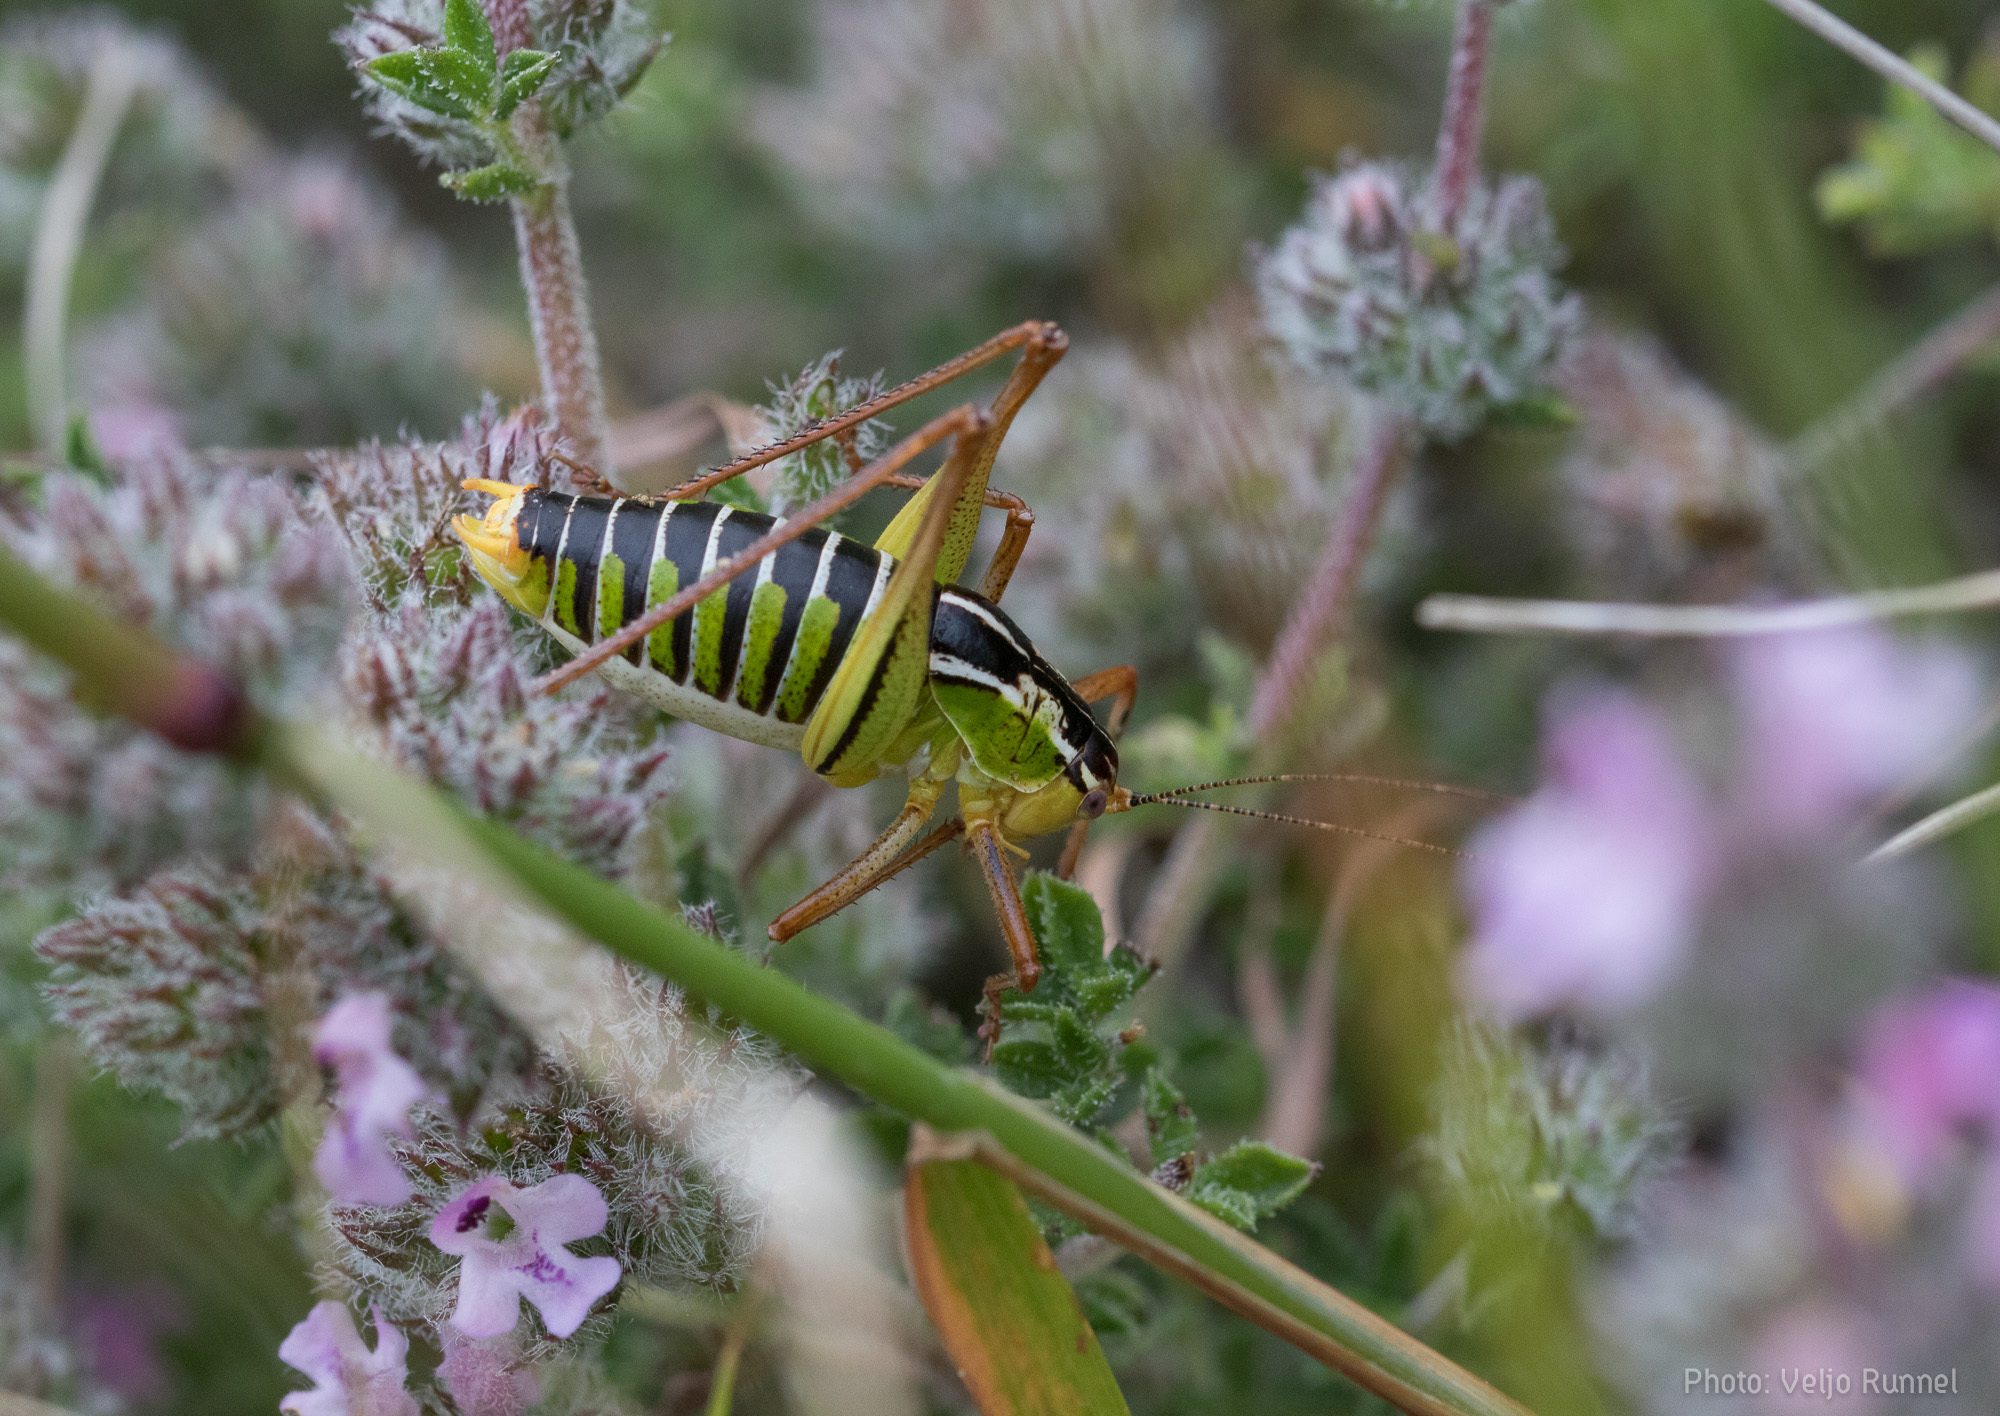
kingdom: Animalia
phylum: Arthropoda
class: Insecta
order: Orthoptera
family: Tettigoniidae
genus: Poecilimon
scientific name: Poecilimon cretensis
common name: Cretan bright bush-cricket
